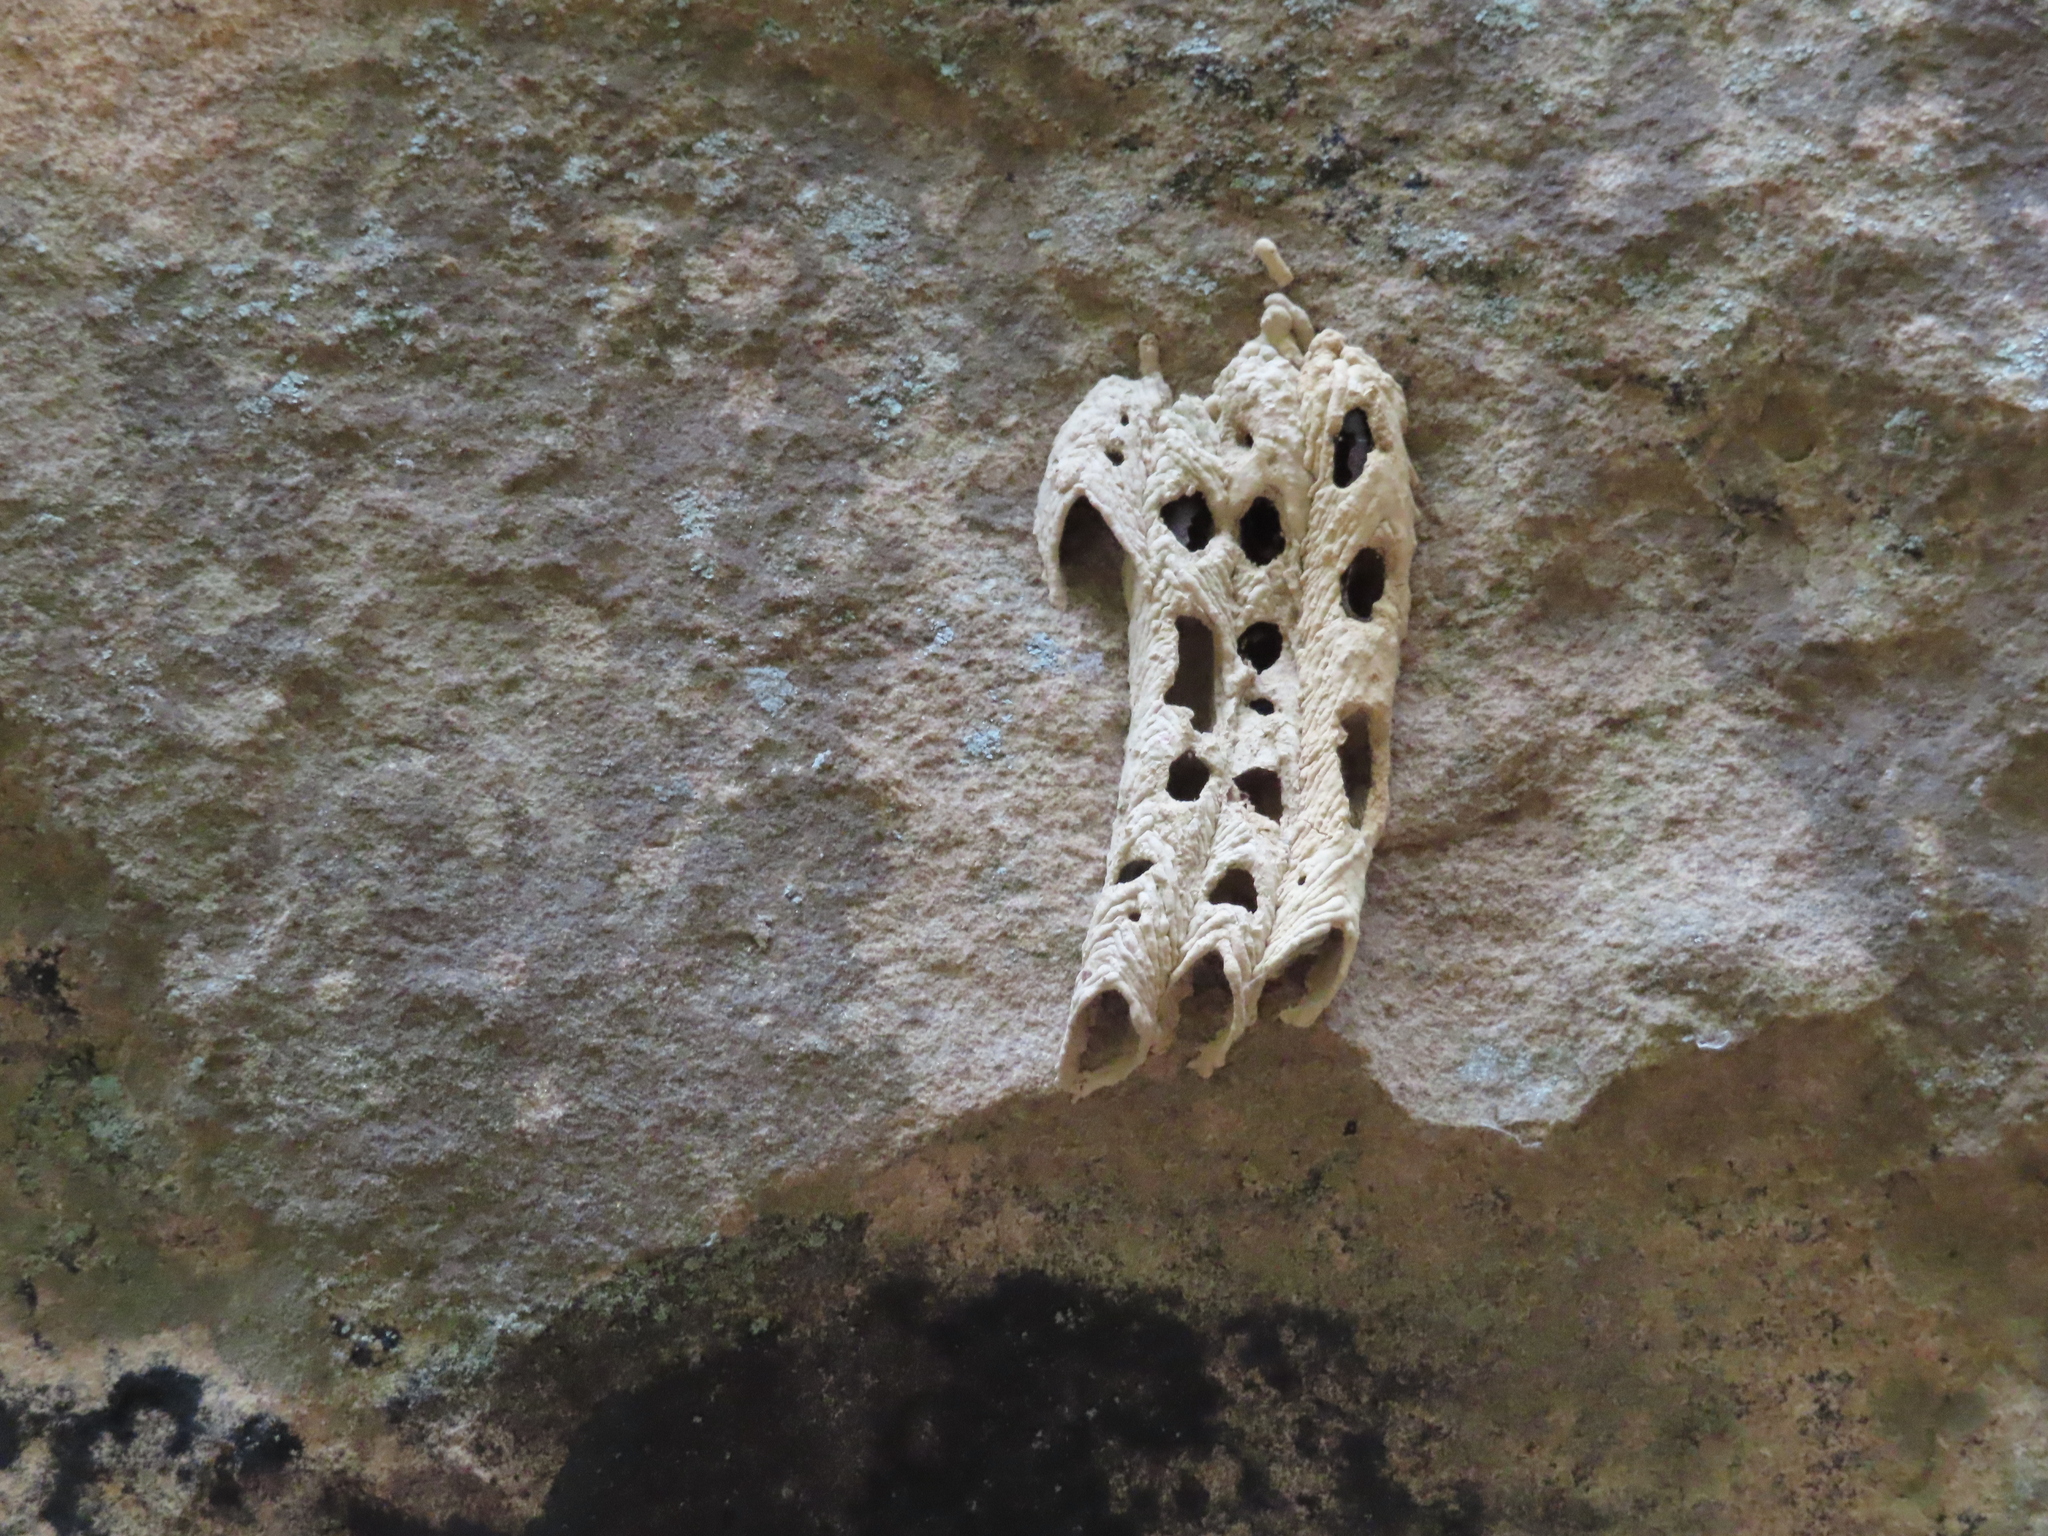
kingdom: Animalia
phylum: Arthropoda
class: Insecta
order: Hymenoptera
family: Crabronidae
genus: Trypoxylon
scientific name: Trypoxylon politum
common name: Organ-pipe mud-dauber wasp
